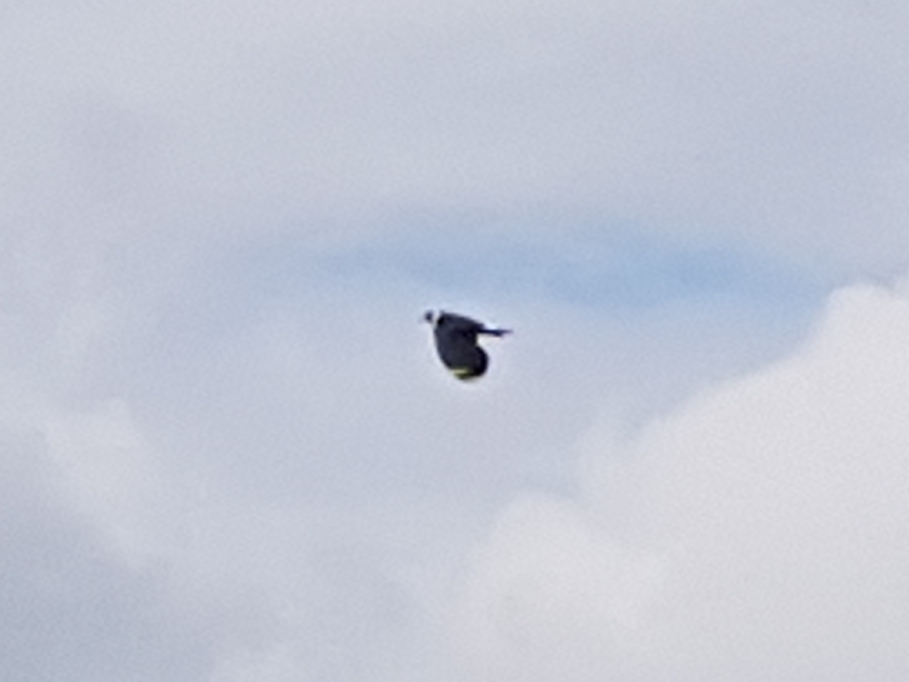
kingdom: Animalia
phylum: Chordata
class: Aves
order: Charadriiformes
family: Charadriidae
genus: Vanellus
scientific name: Vanellus vanellus
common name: Northern lapwing
